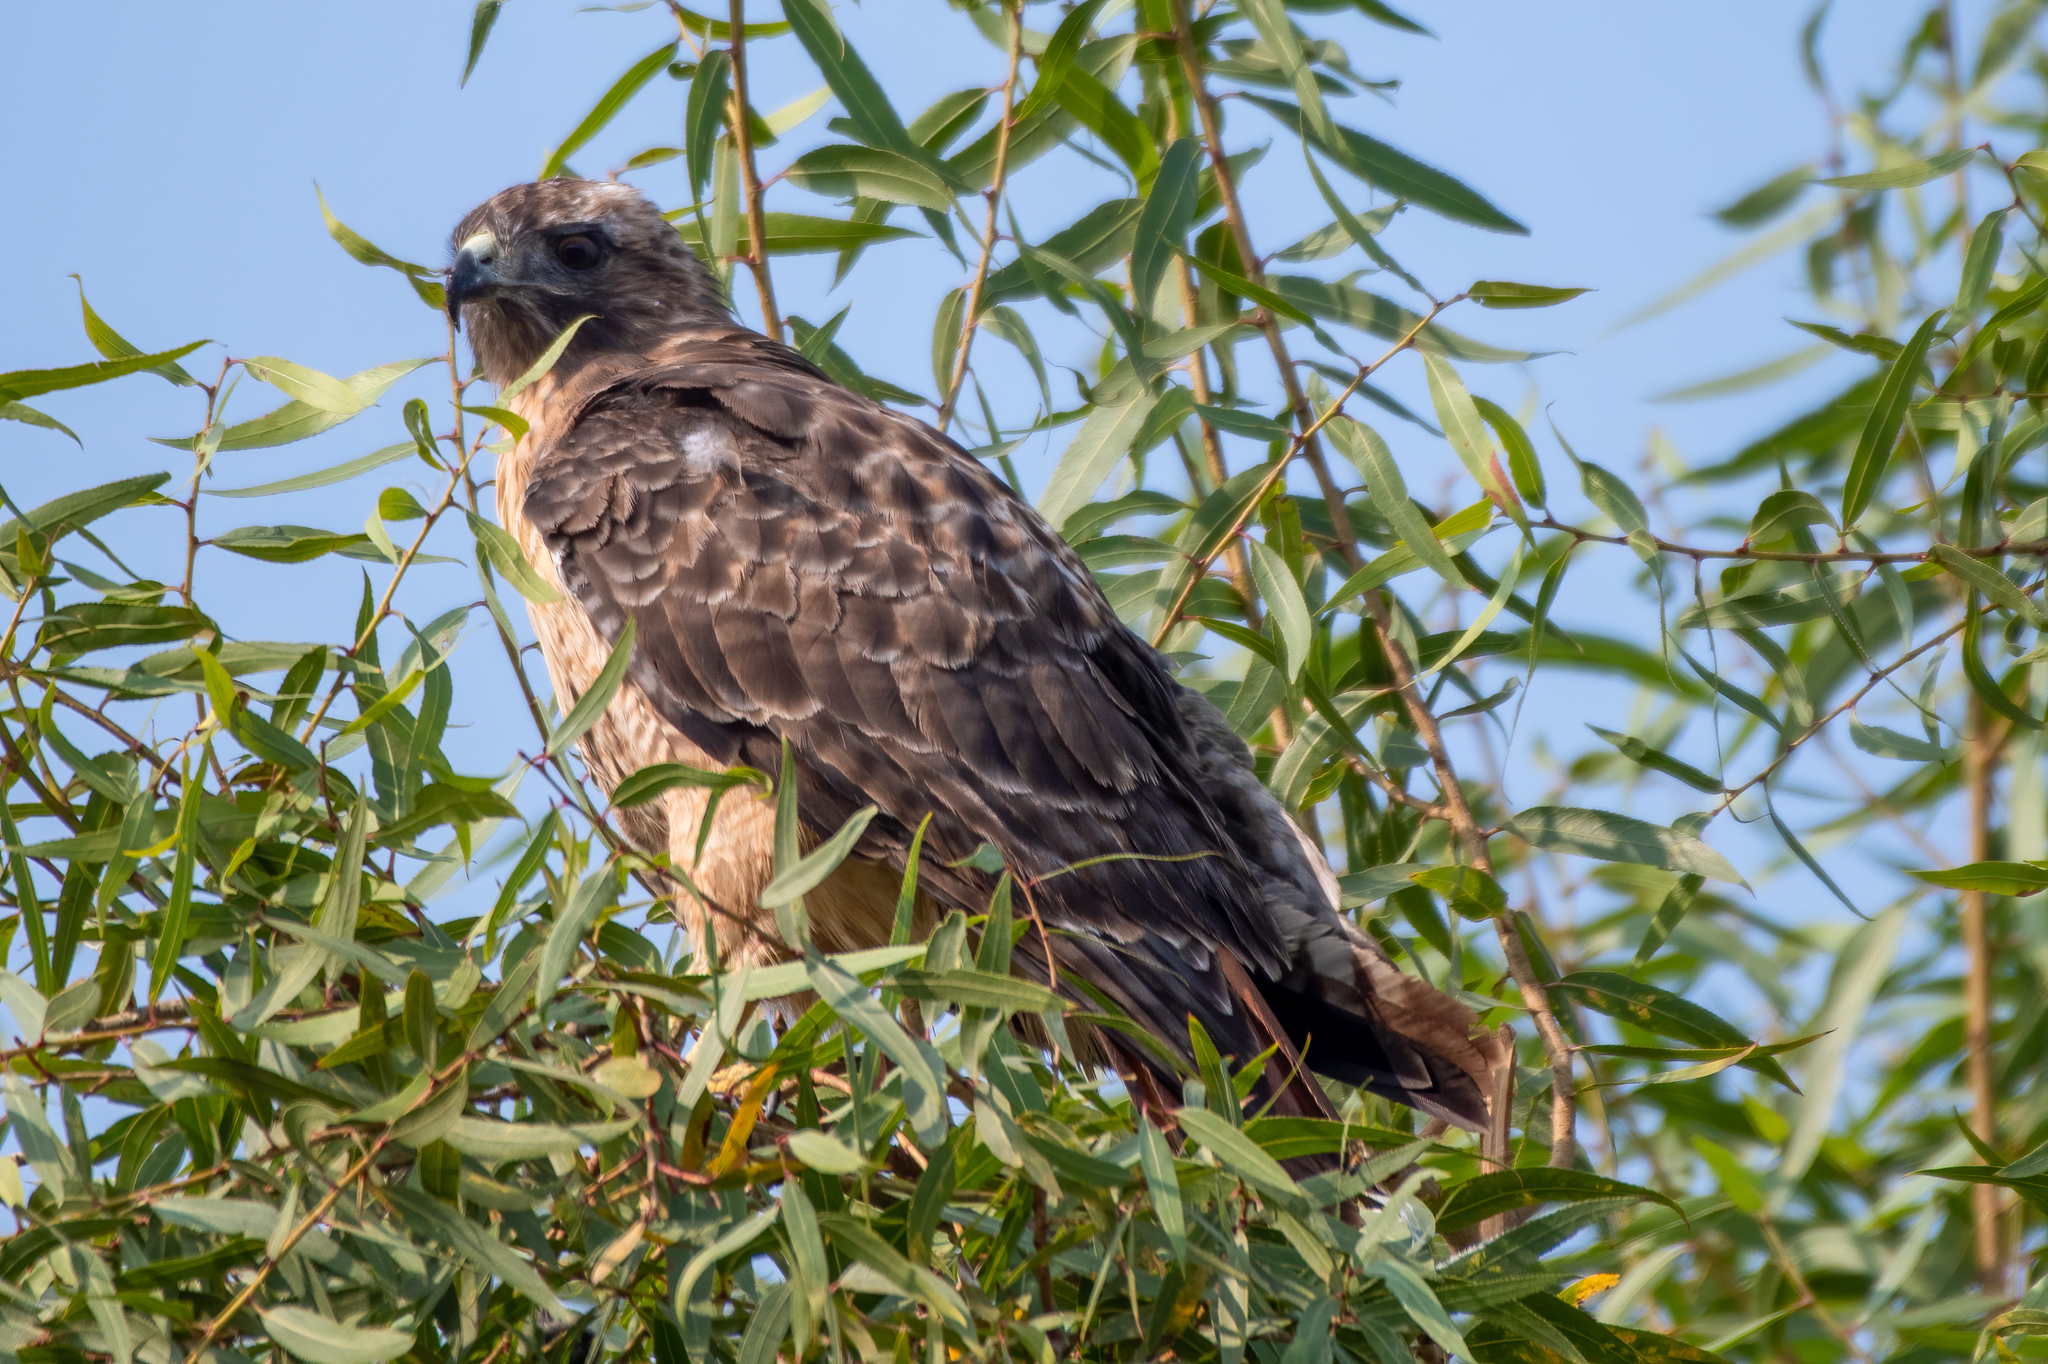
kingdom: Animalia
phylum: Chordata
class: Aves
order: Accipitriformes
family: Accipitridae
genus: Buteo
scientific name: Buteo jamaicensis
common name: Red-tailed hawk
